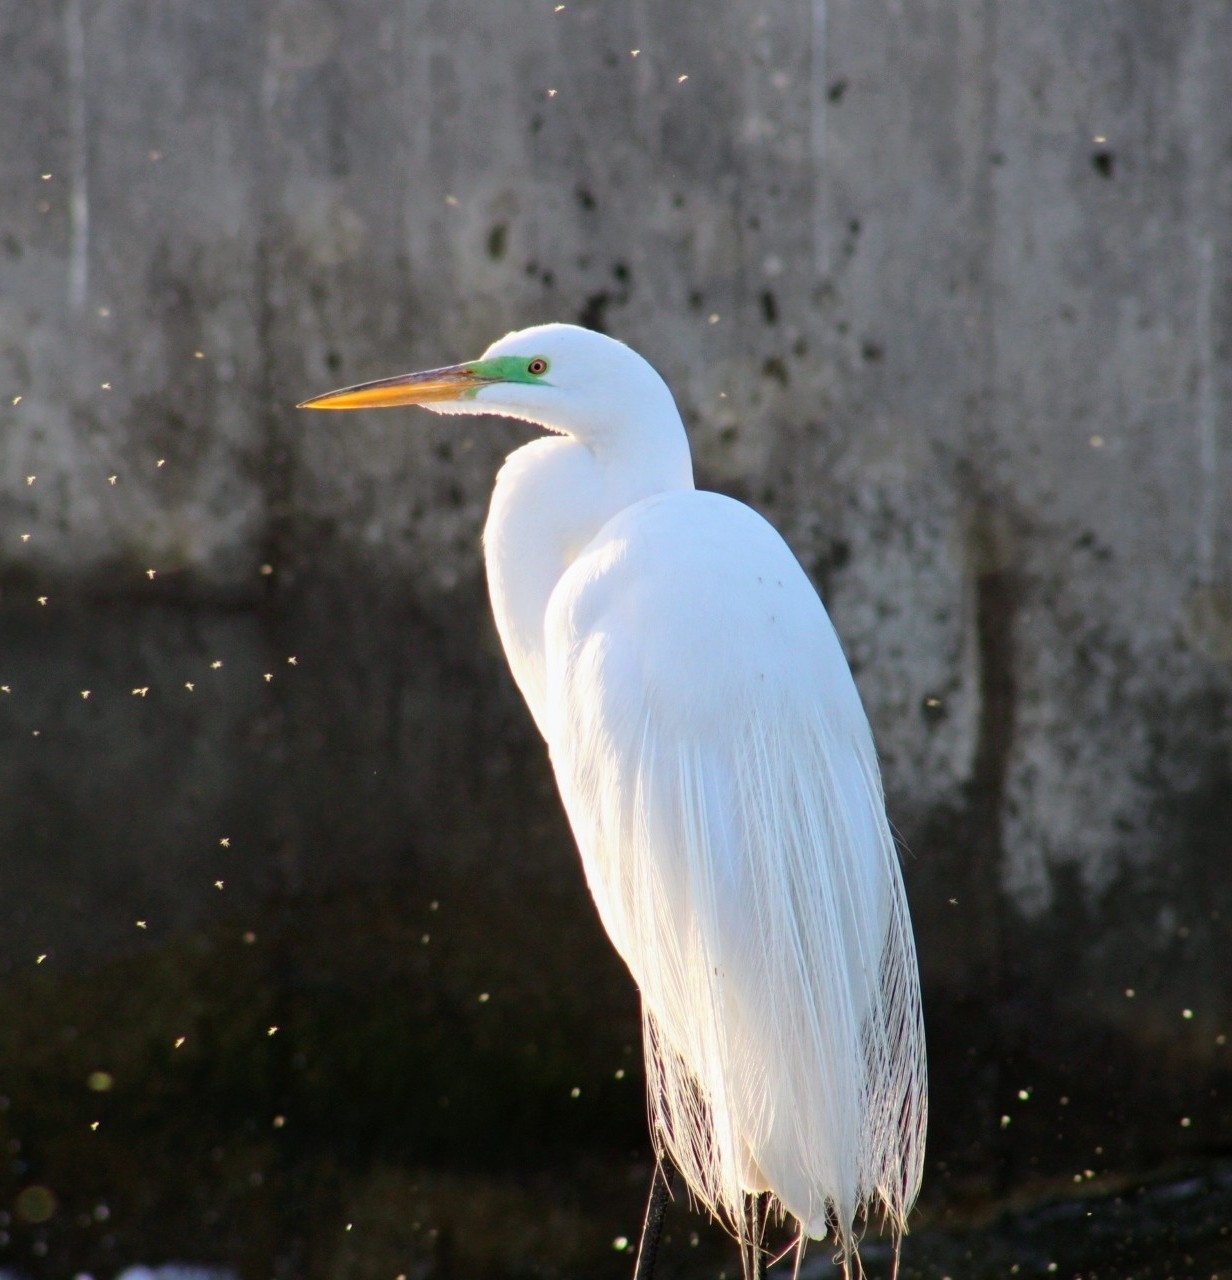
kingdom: Animalia
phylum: Chordata
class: Aves
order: Pelecaniformes
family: Ardeidae
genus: Ardea
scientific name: Ardea alba
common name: Great egret
